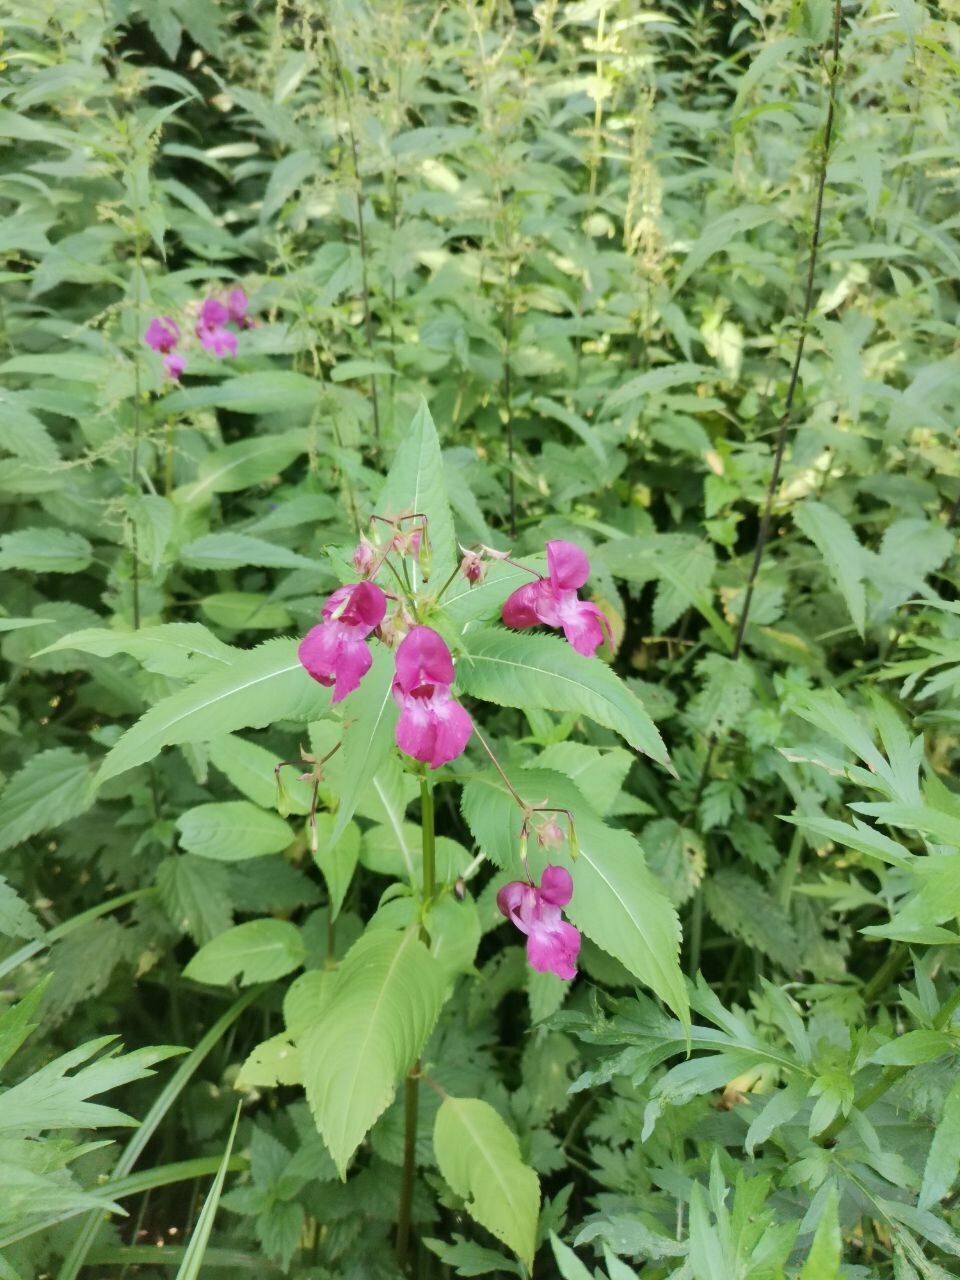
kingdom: Plantae
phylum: Tracheophyta
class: Magnoliopsida
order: Ericales
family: Balsaminaceae
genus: Impatiens
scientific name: Impatiens glandulifera
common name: Himalayan balsam
